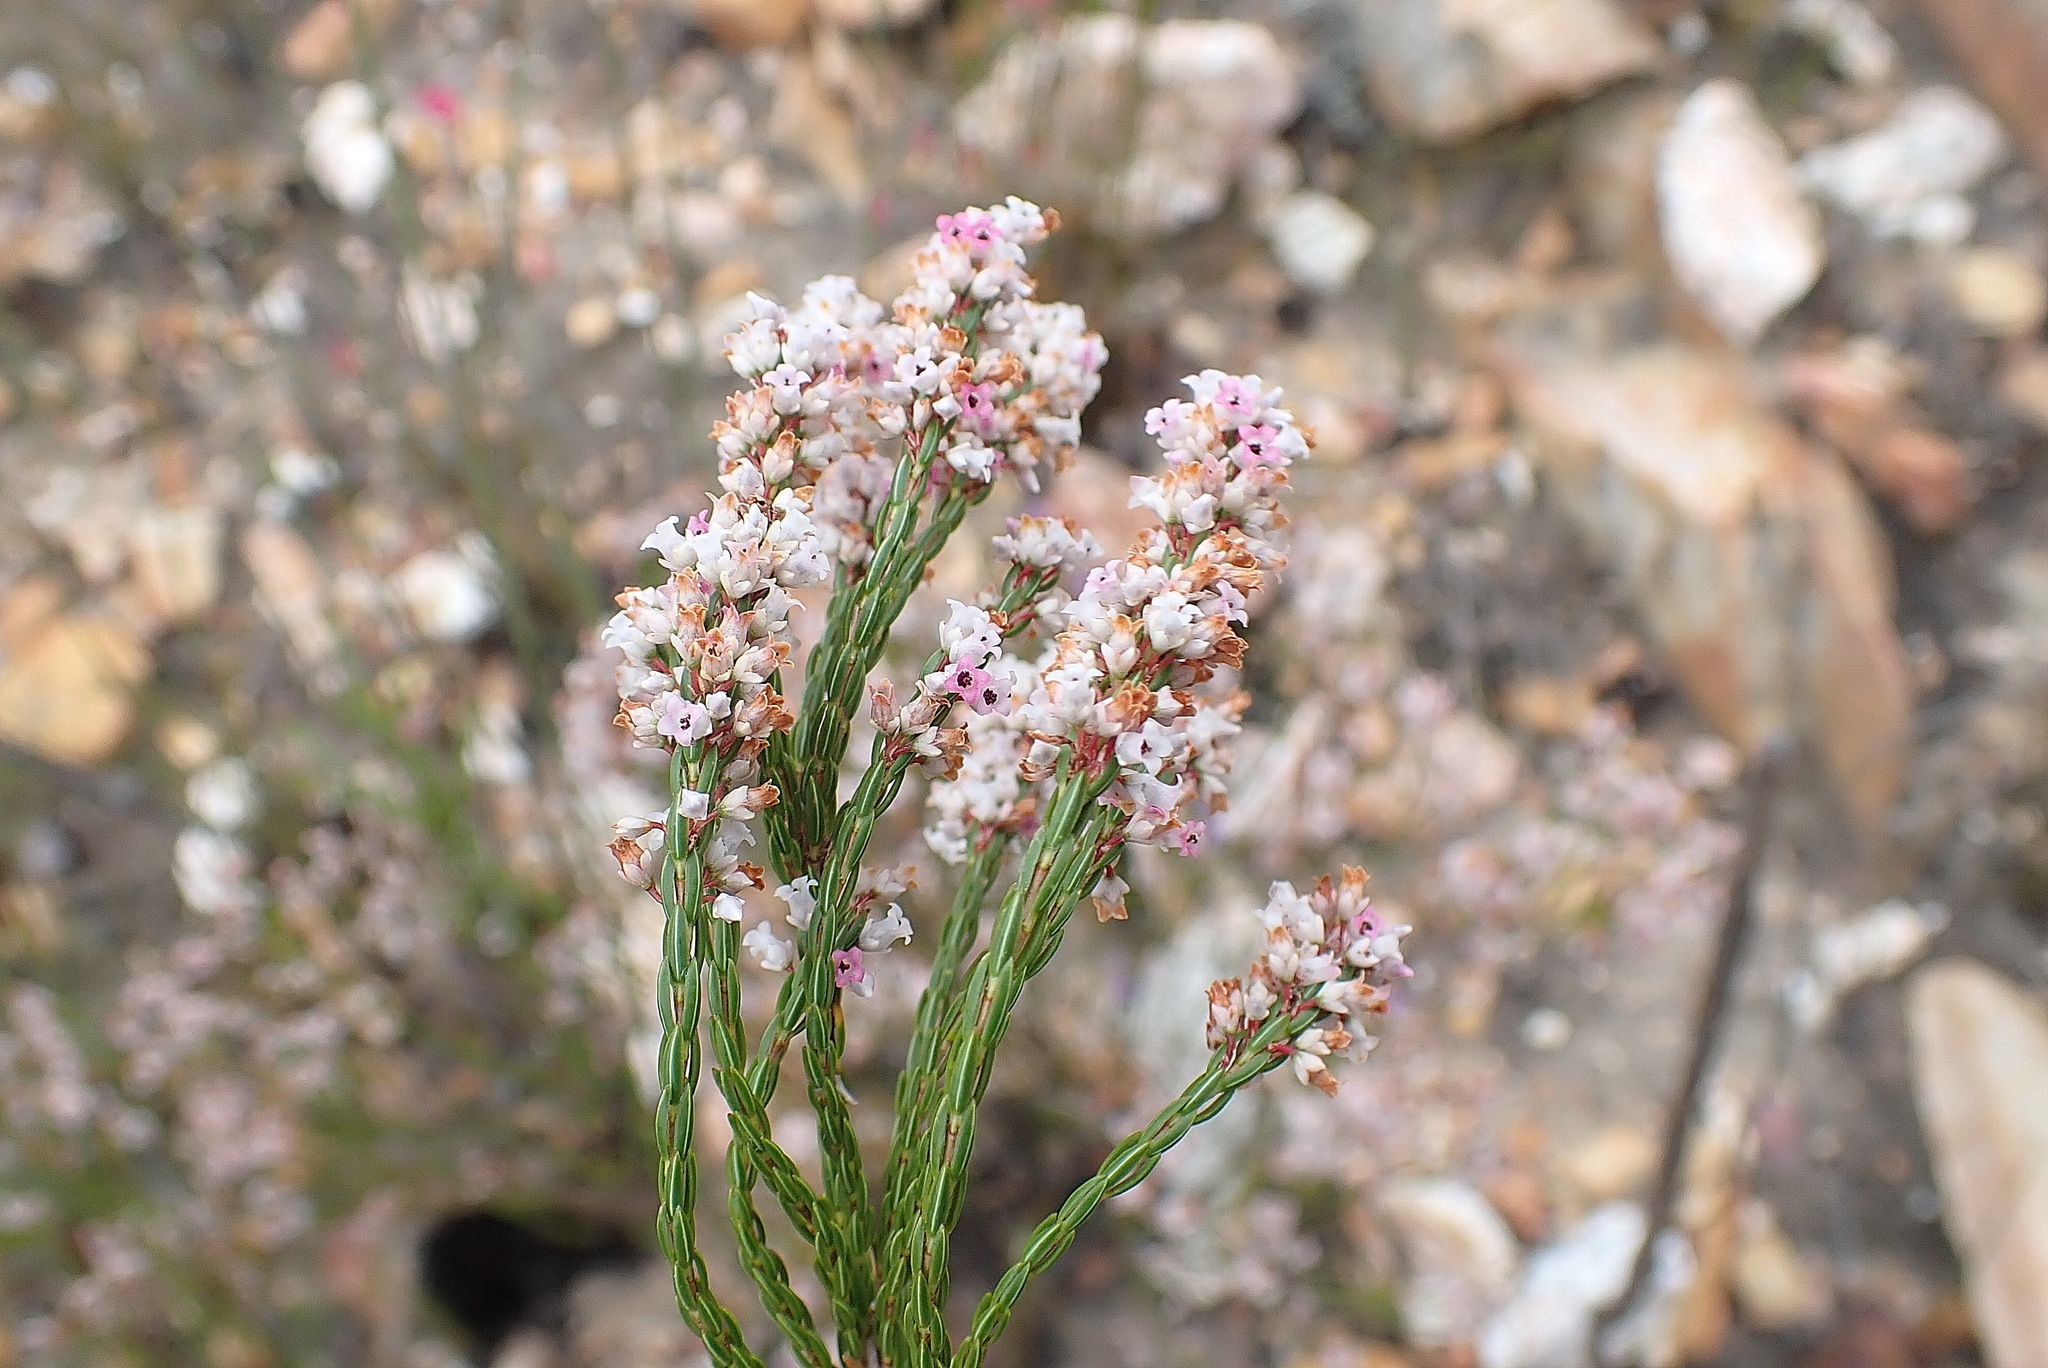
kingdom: Plantae
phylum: Tracheophyta
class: Magnoliopsida
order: Ericales
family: Ericaceae
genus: Erica
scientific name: Erica articularis
